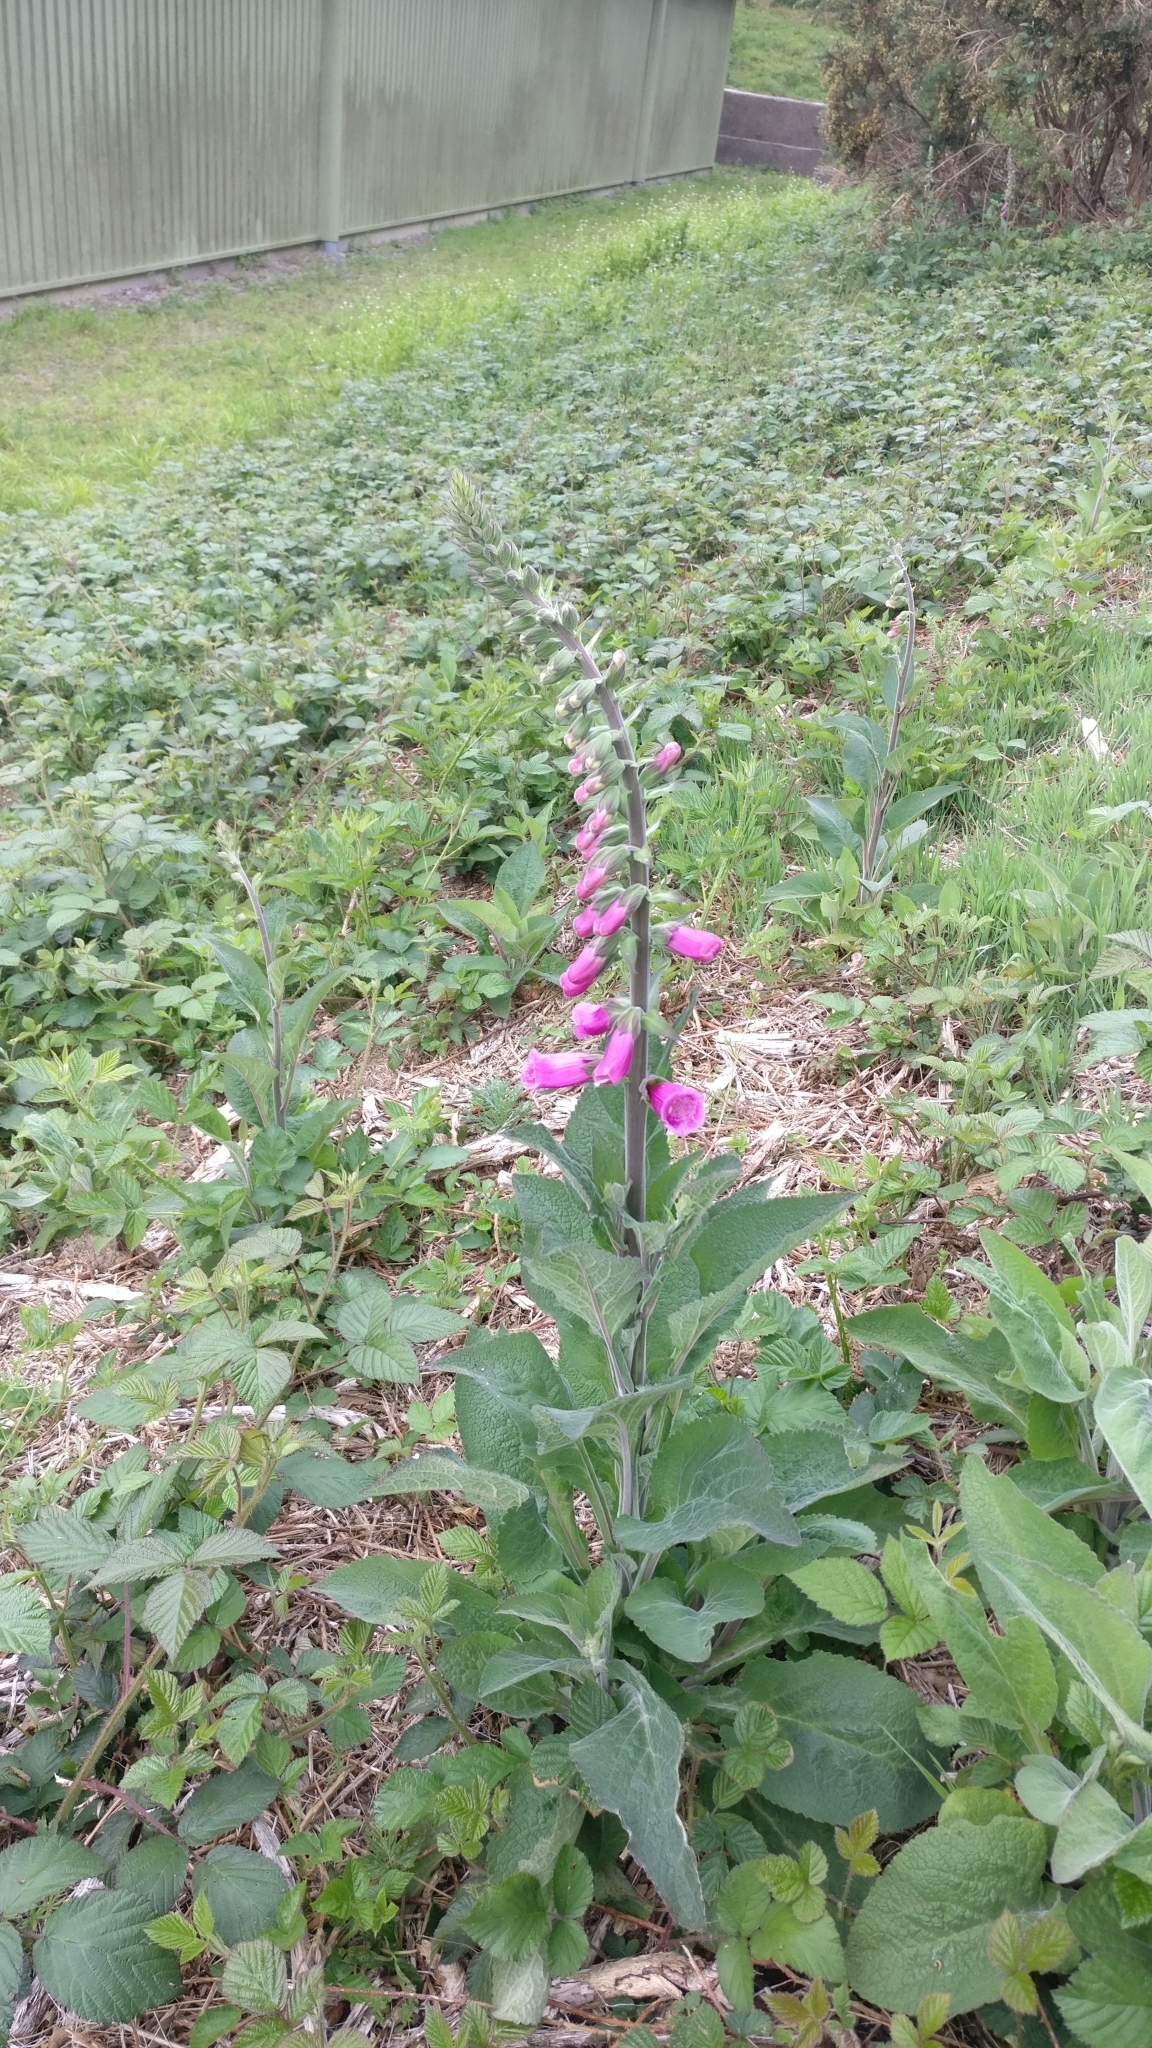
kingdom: Plantae
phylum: Tracheophyta
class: Magnoliopsida
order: Lamiales
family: Plantaginaceae
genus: Digitalis
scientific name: Digitalis purpurea
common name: Foxglove
